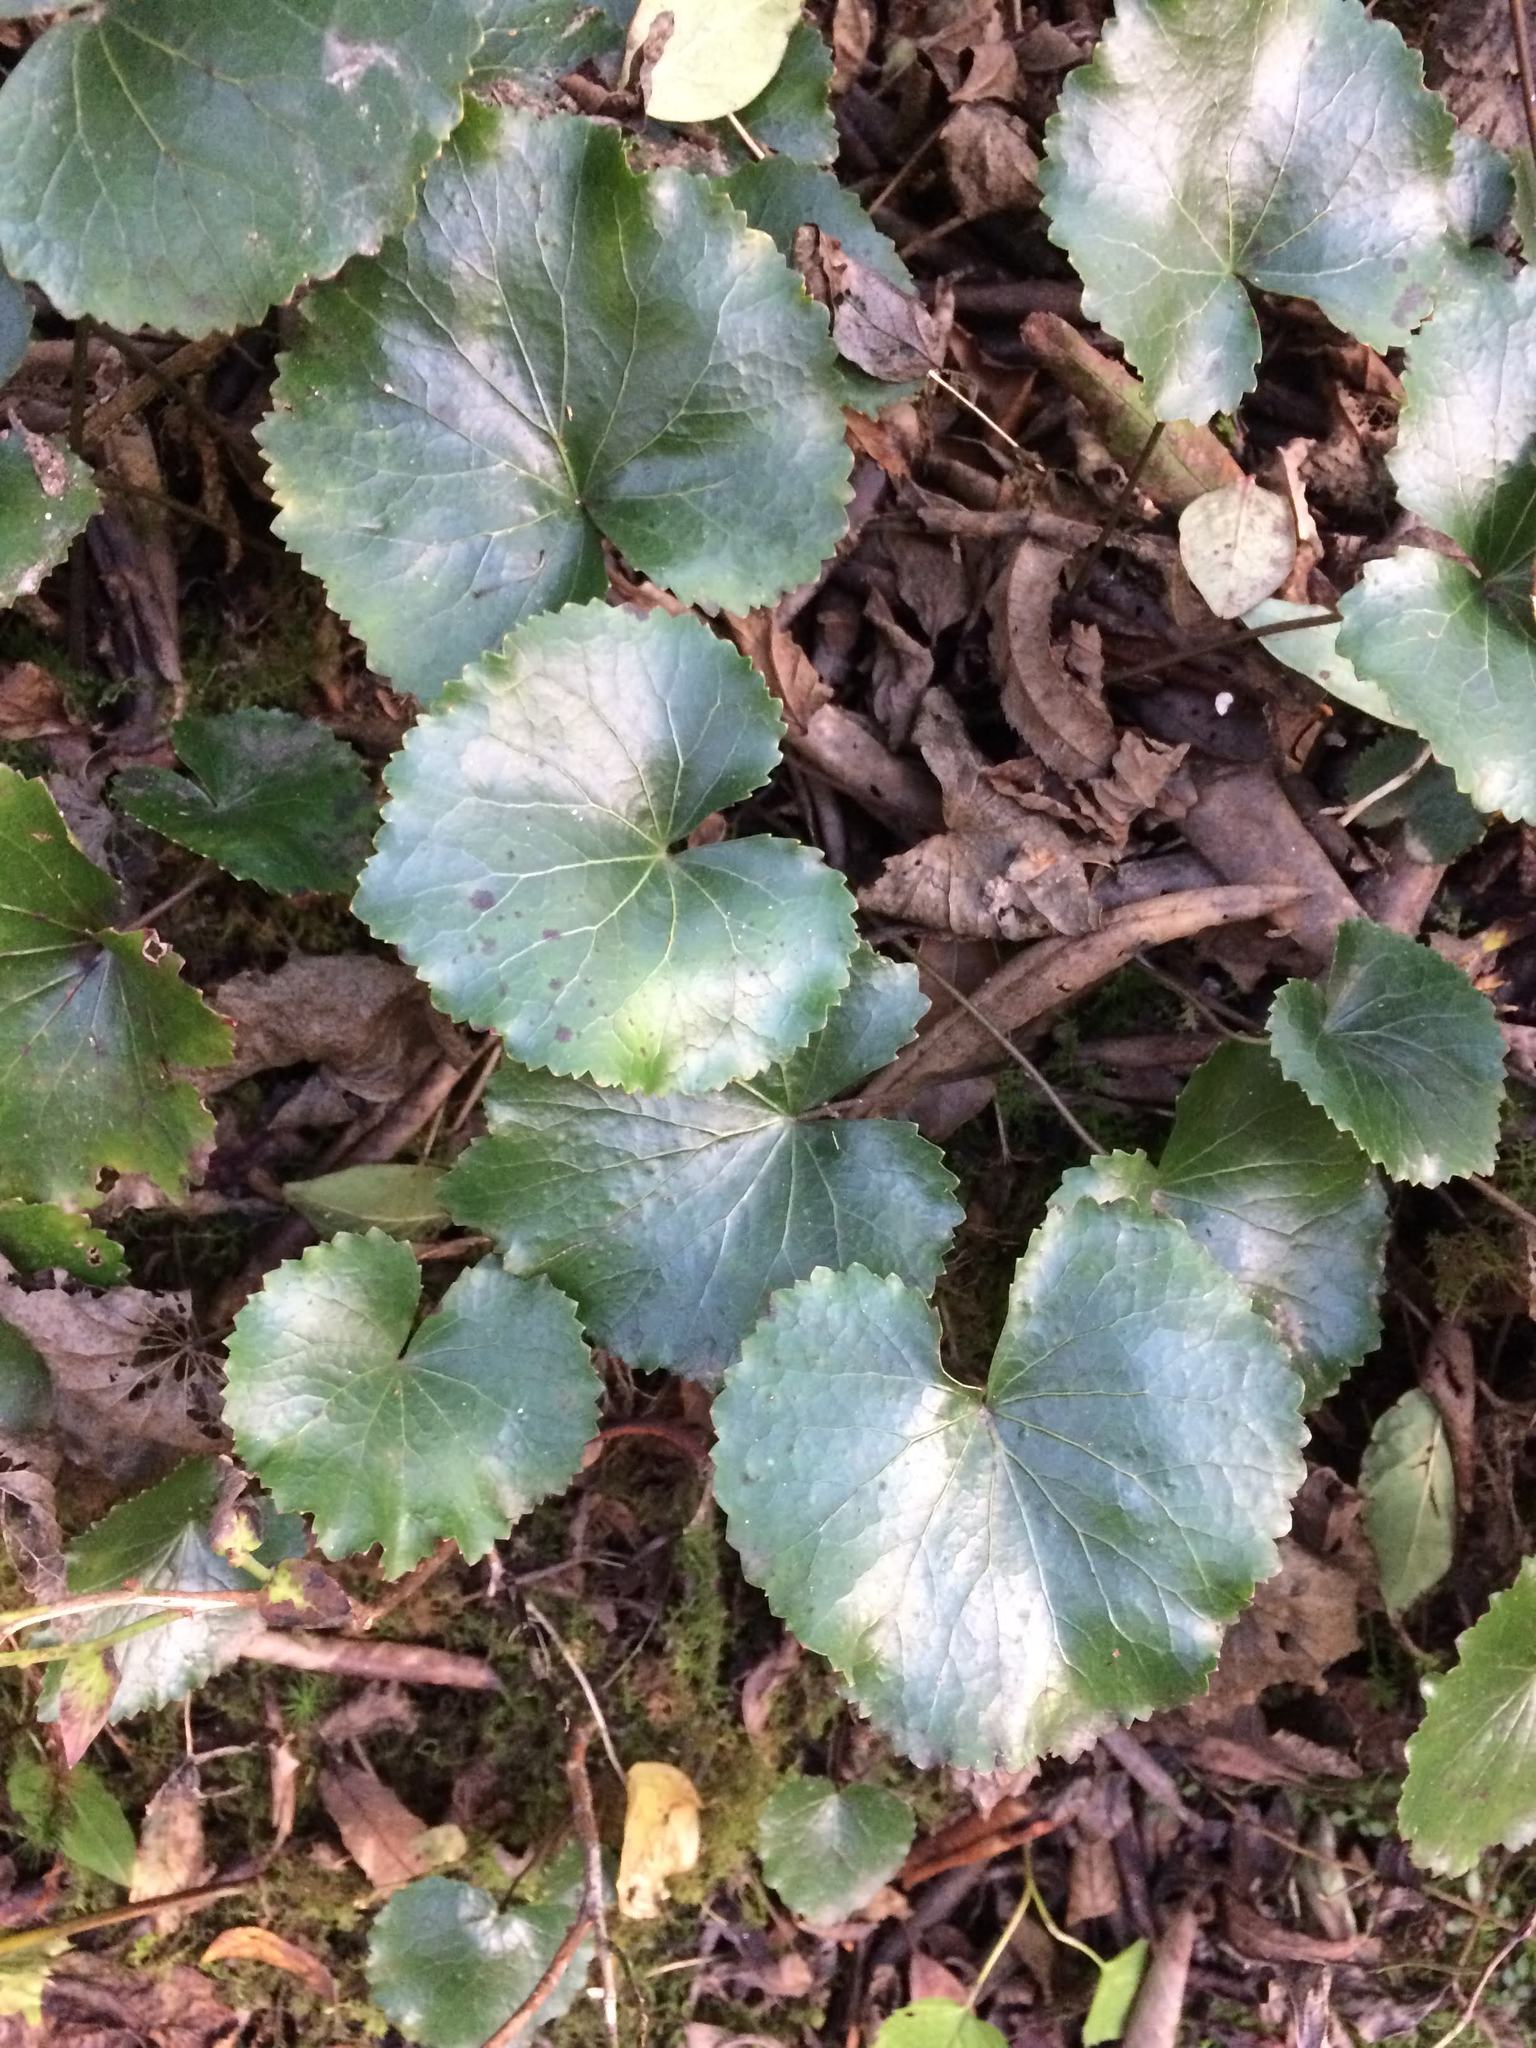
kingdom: Plantae
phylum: Tracheophyta
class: Magnoliopsida
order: Ericales
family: Diapensiaceae
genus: Galax
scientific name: Galax urceolata
